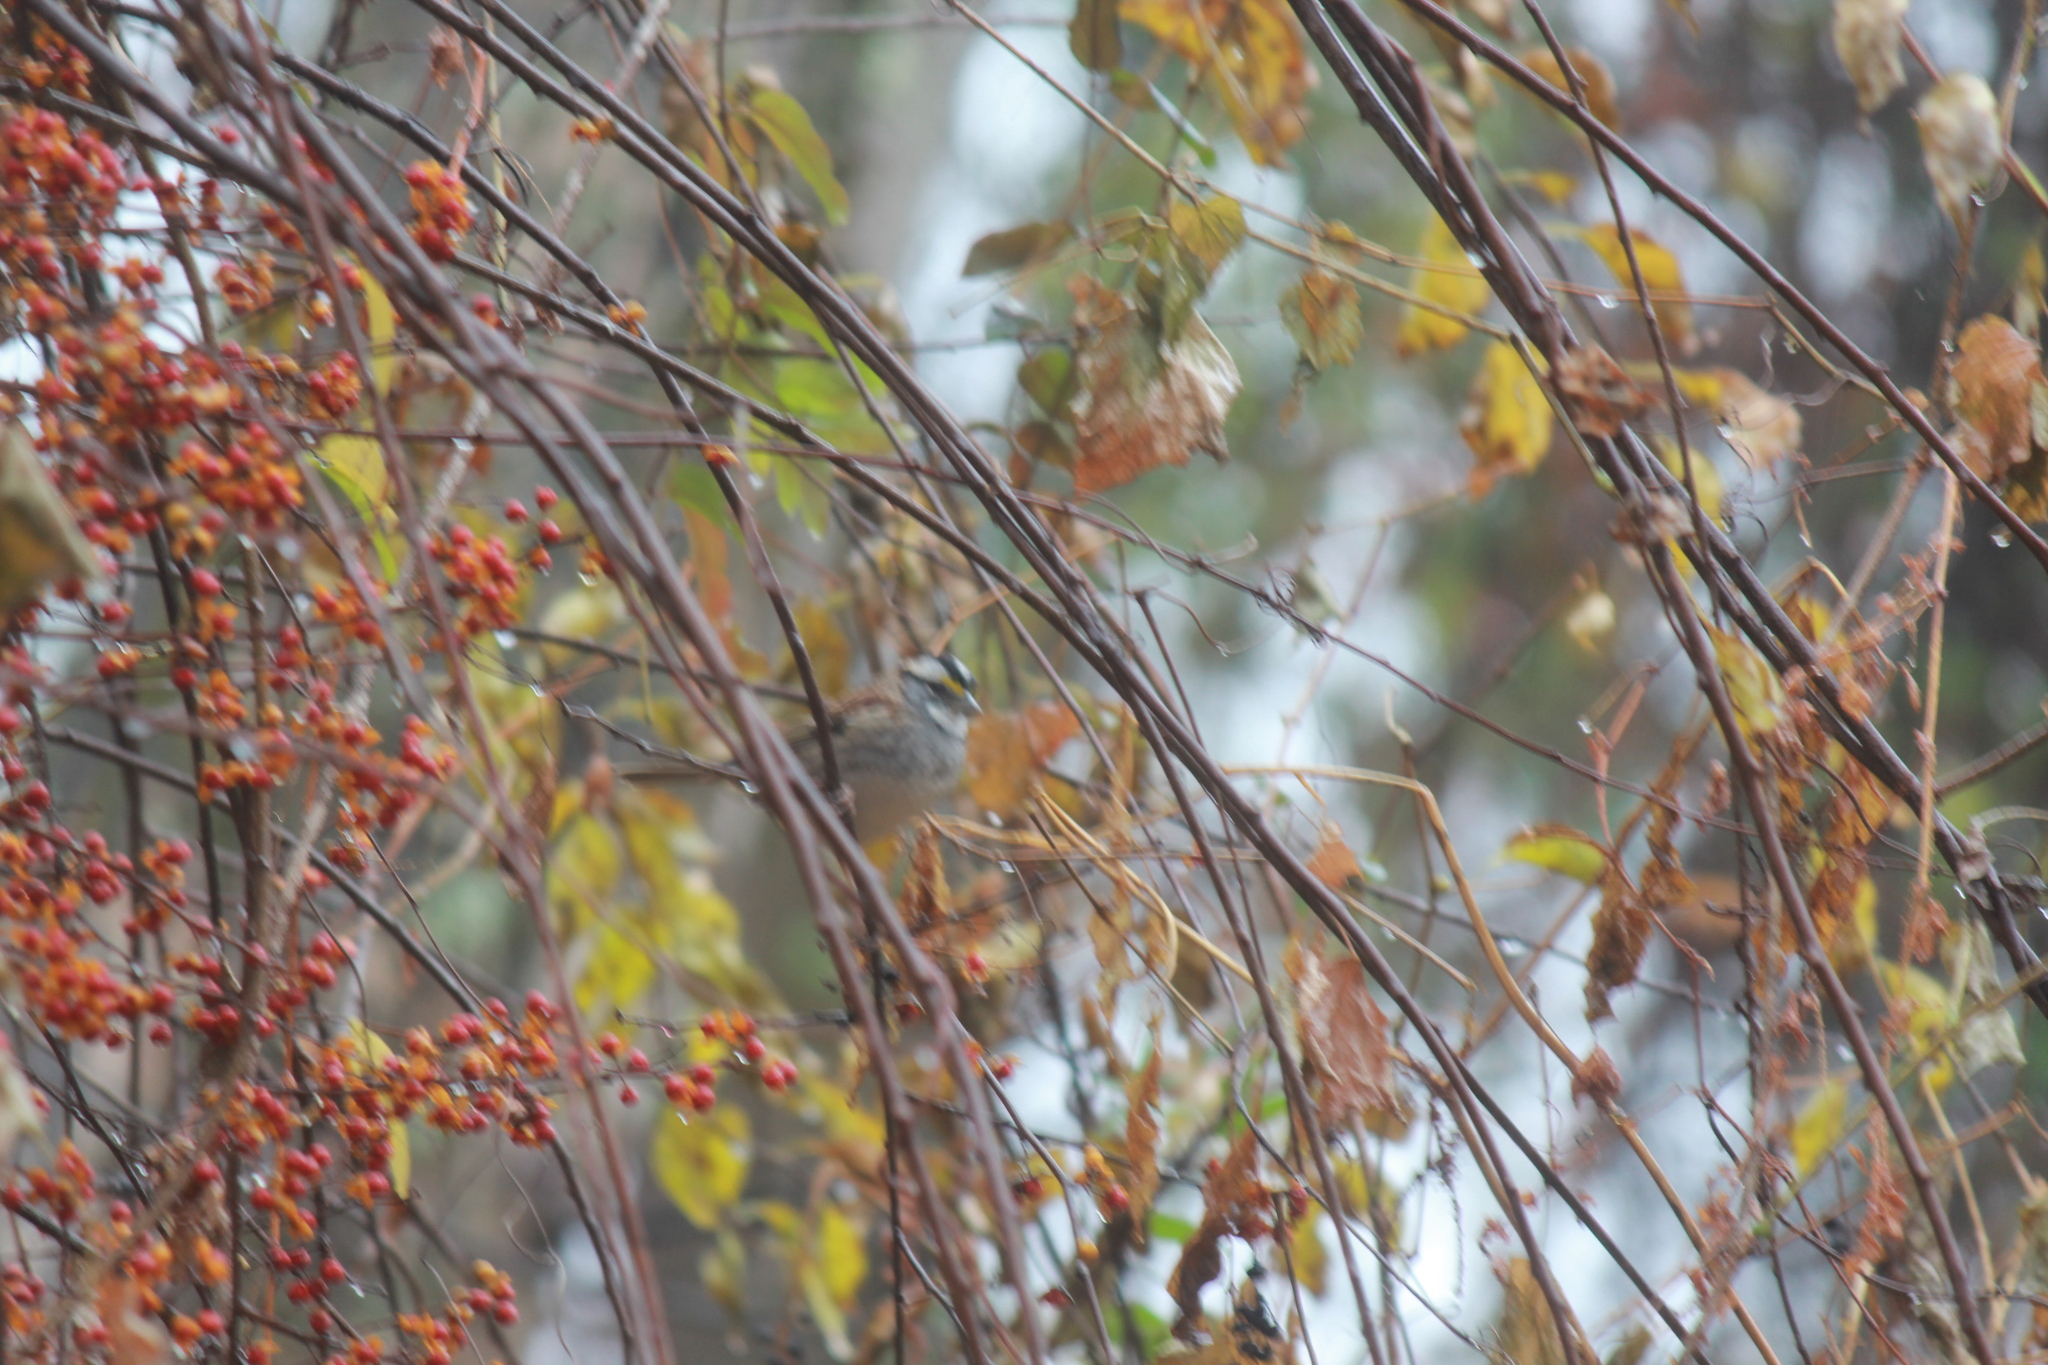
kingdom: Animalia
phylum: Chordata
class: Aves
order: Passeriformes
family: Passerellidae
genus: Zonotrichia
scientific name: Zonotrichia albicollis
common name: White-throated sparrow
